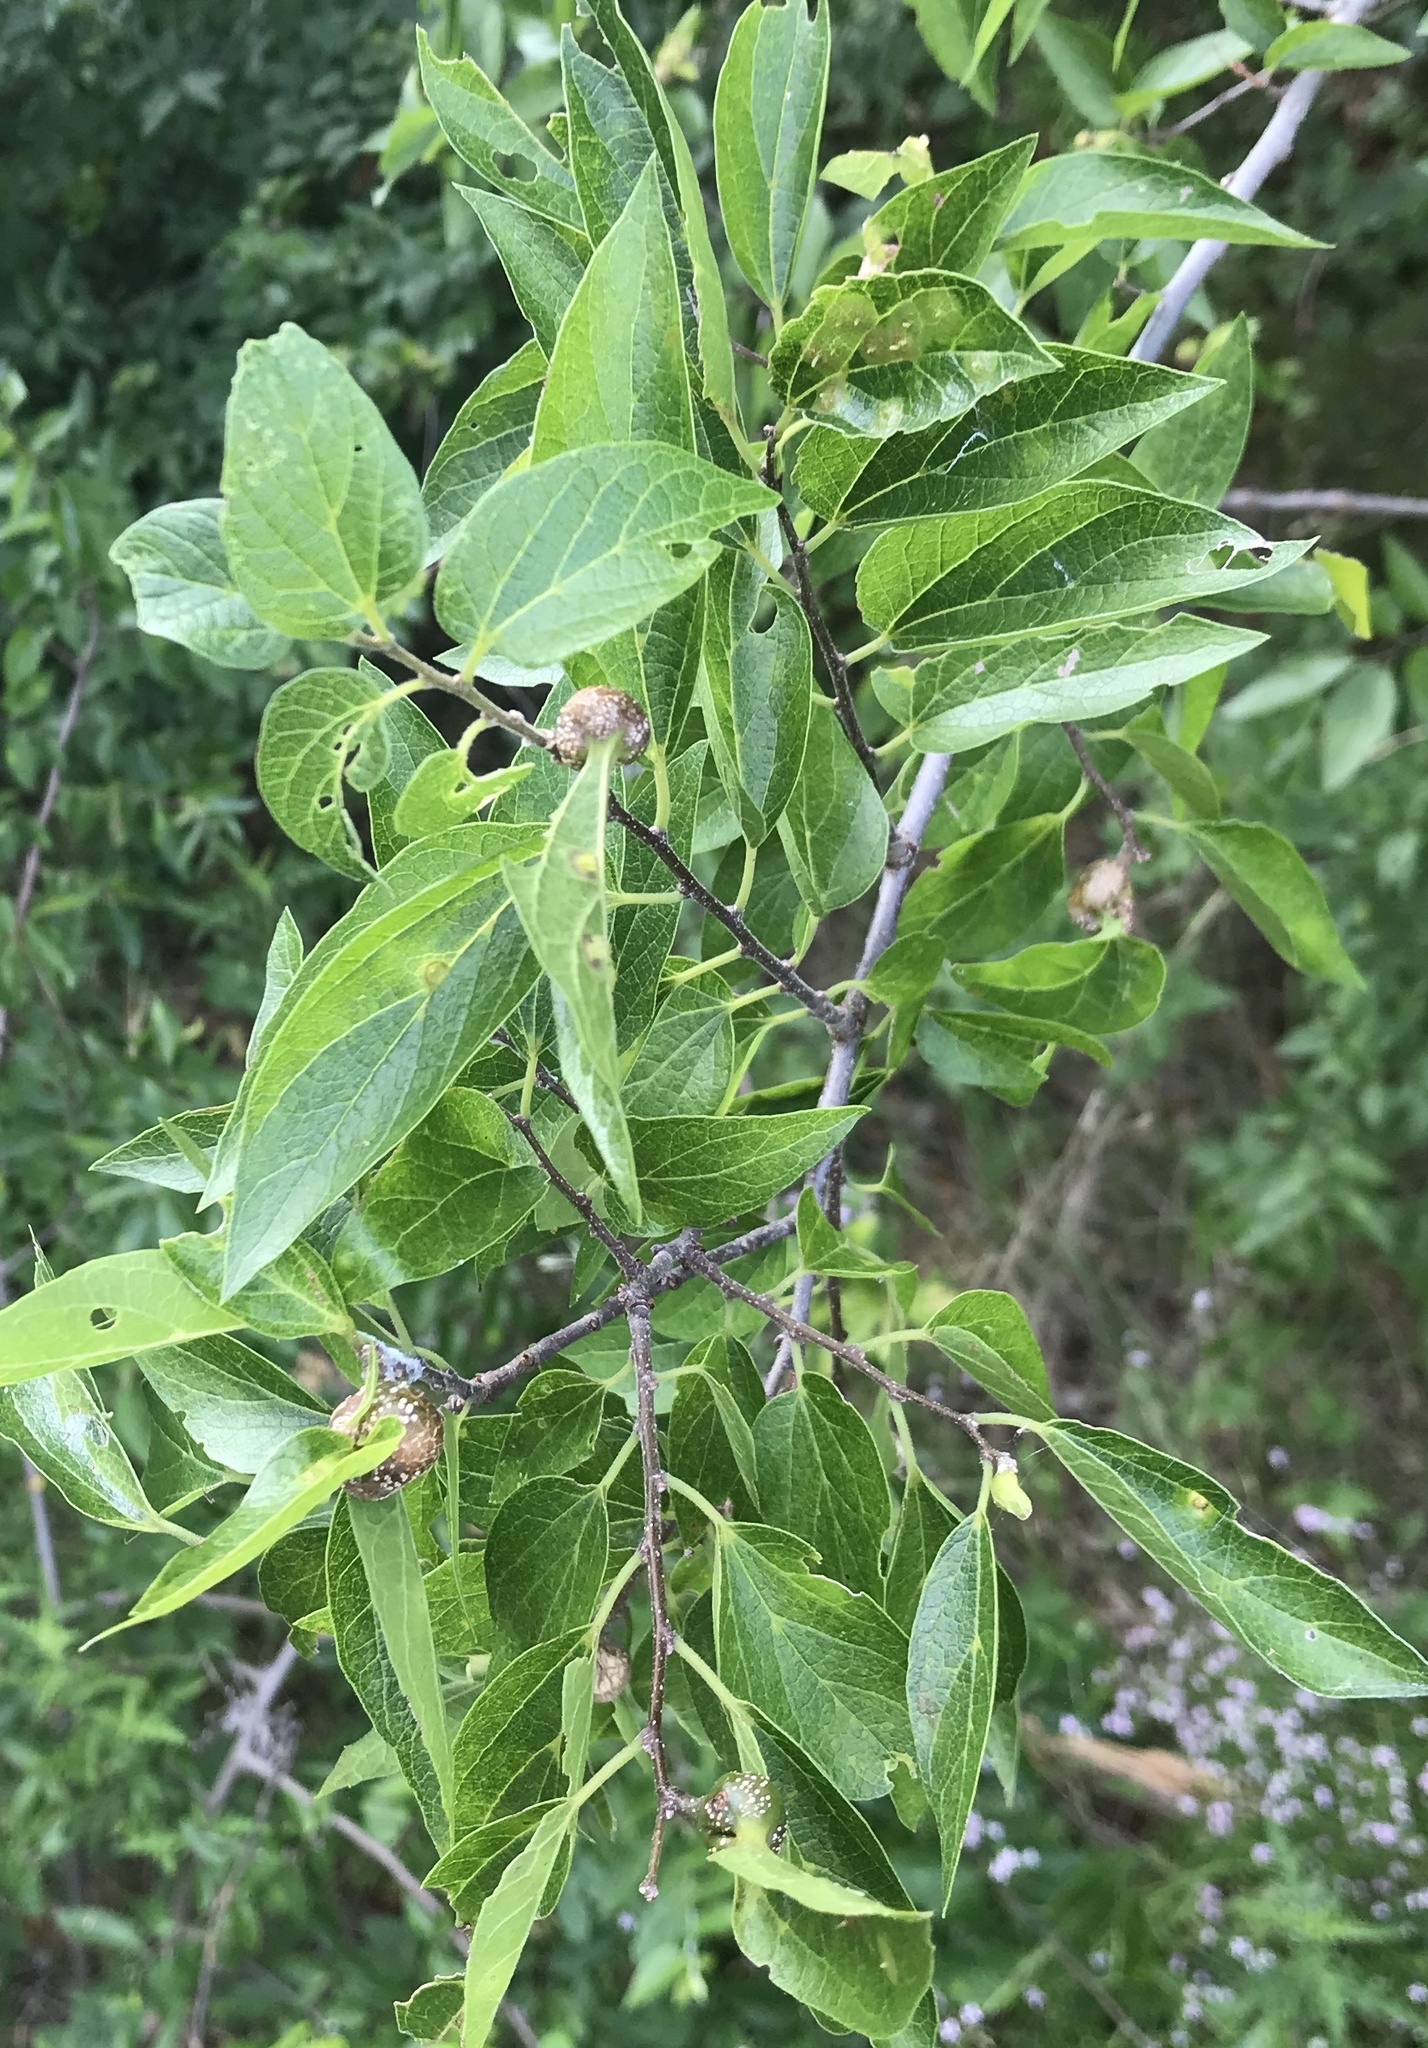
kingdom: Plantae
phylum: Tracheophyta
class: Magnoliopsida
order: Rosales
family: Cannabaceae
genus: Celtis
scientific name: Celtis laevigata
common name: Sugarberry
